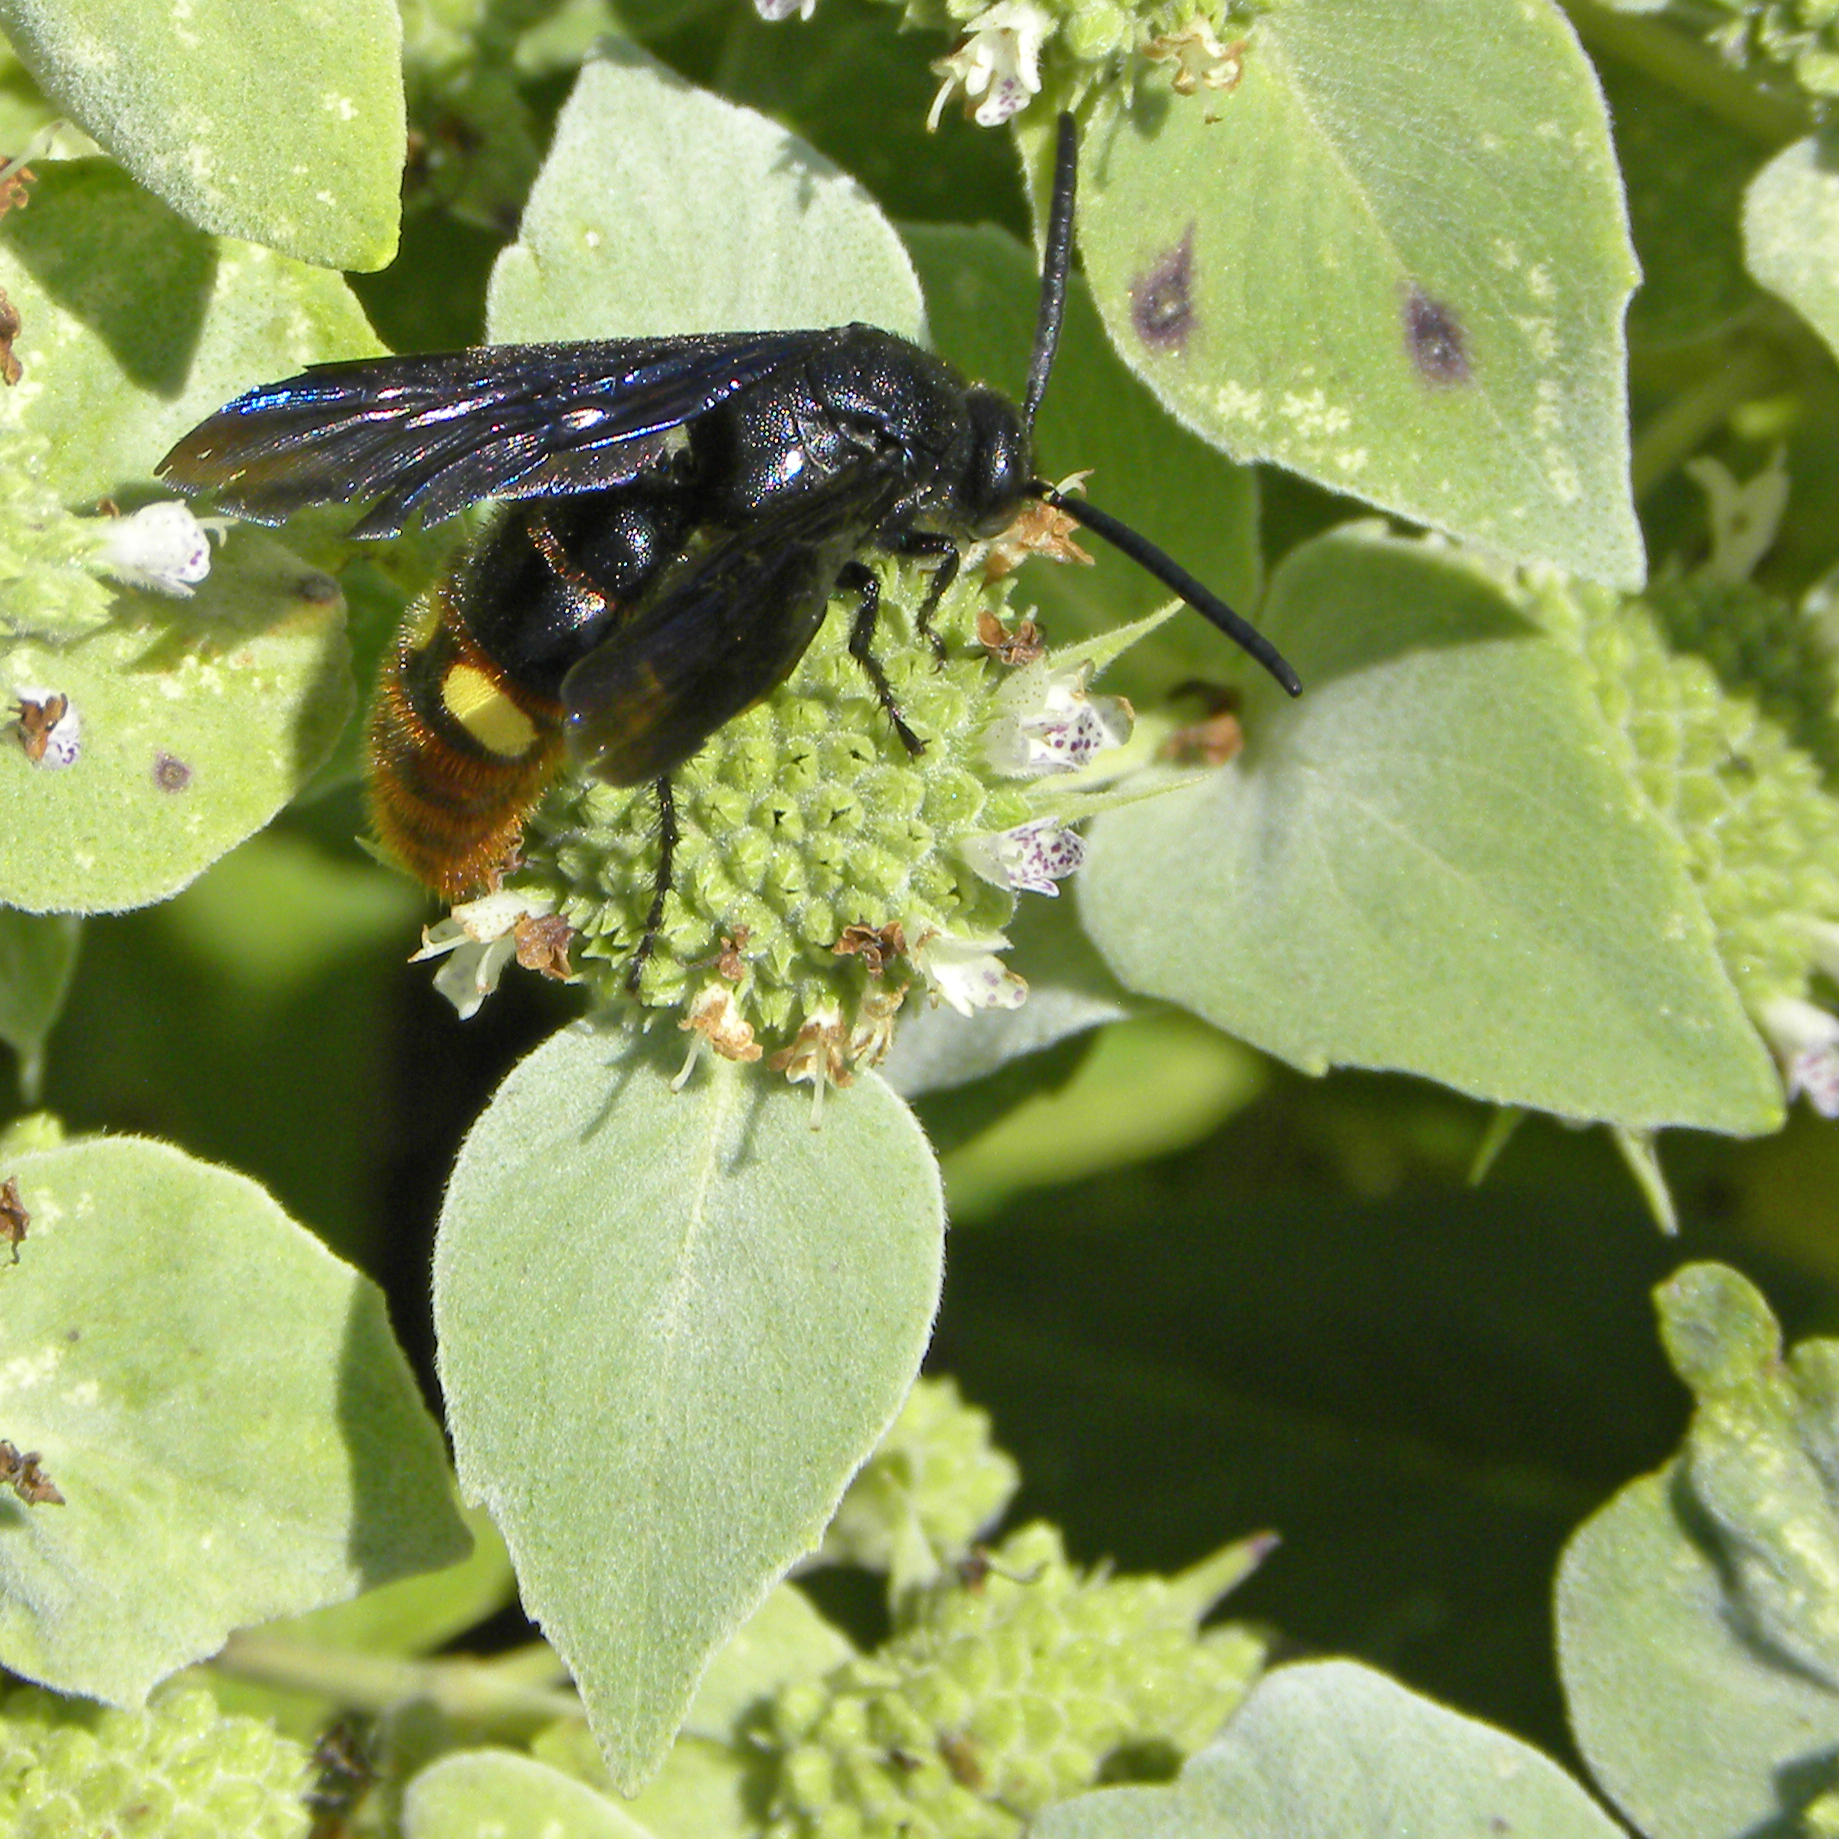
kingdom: Animalia
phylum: Arthropoda
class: Insecta
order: Hymenoptera
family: Scoliidae
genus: Scolia
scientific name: Scolia dubia
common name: Blue-winged scoliid wasp
